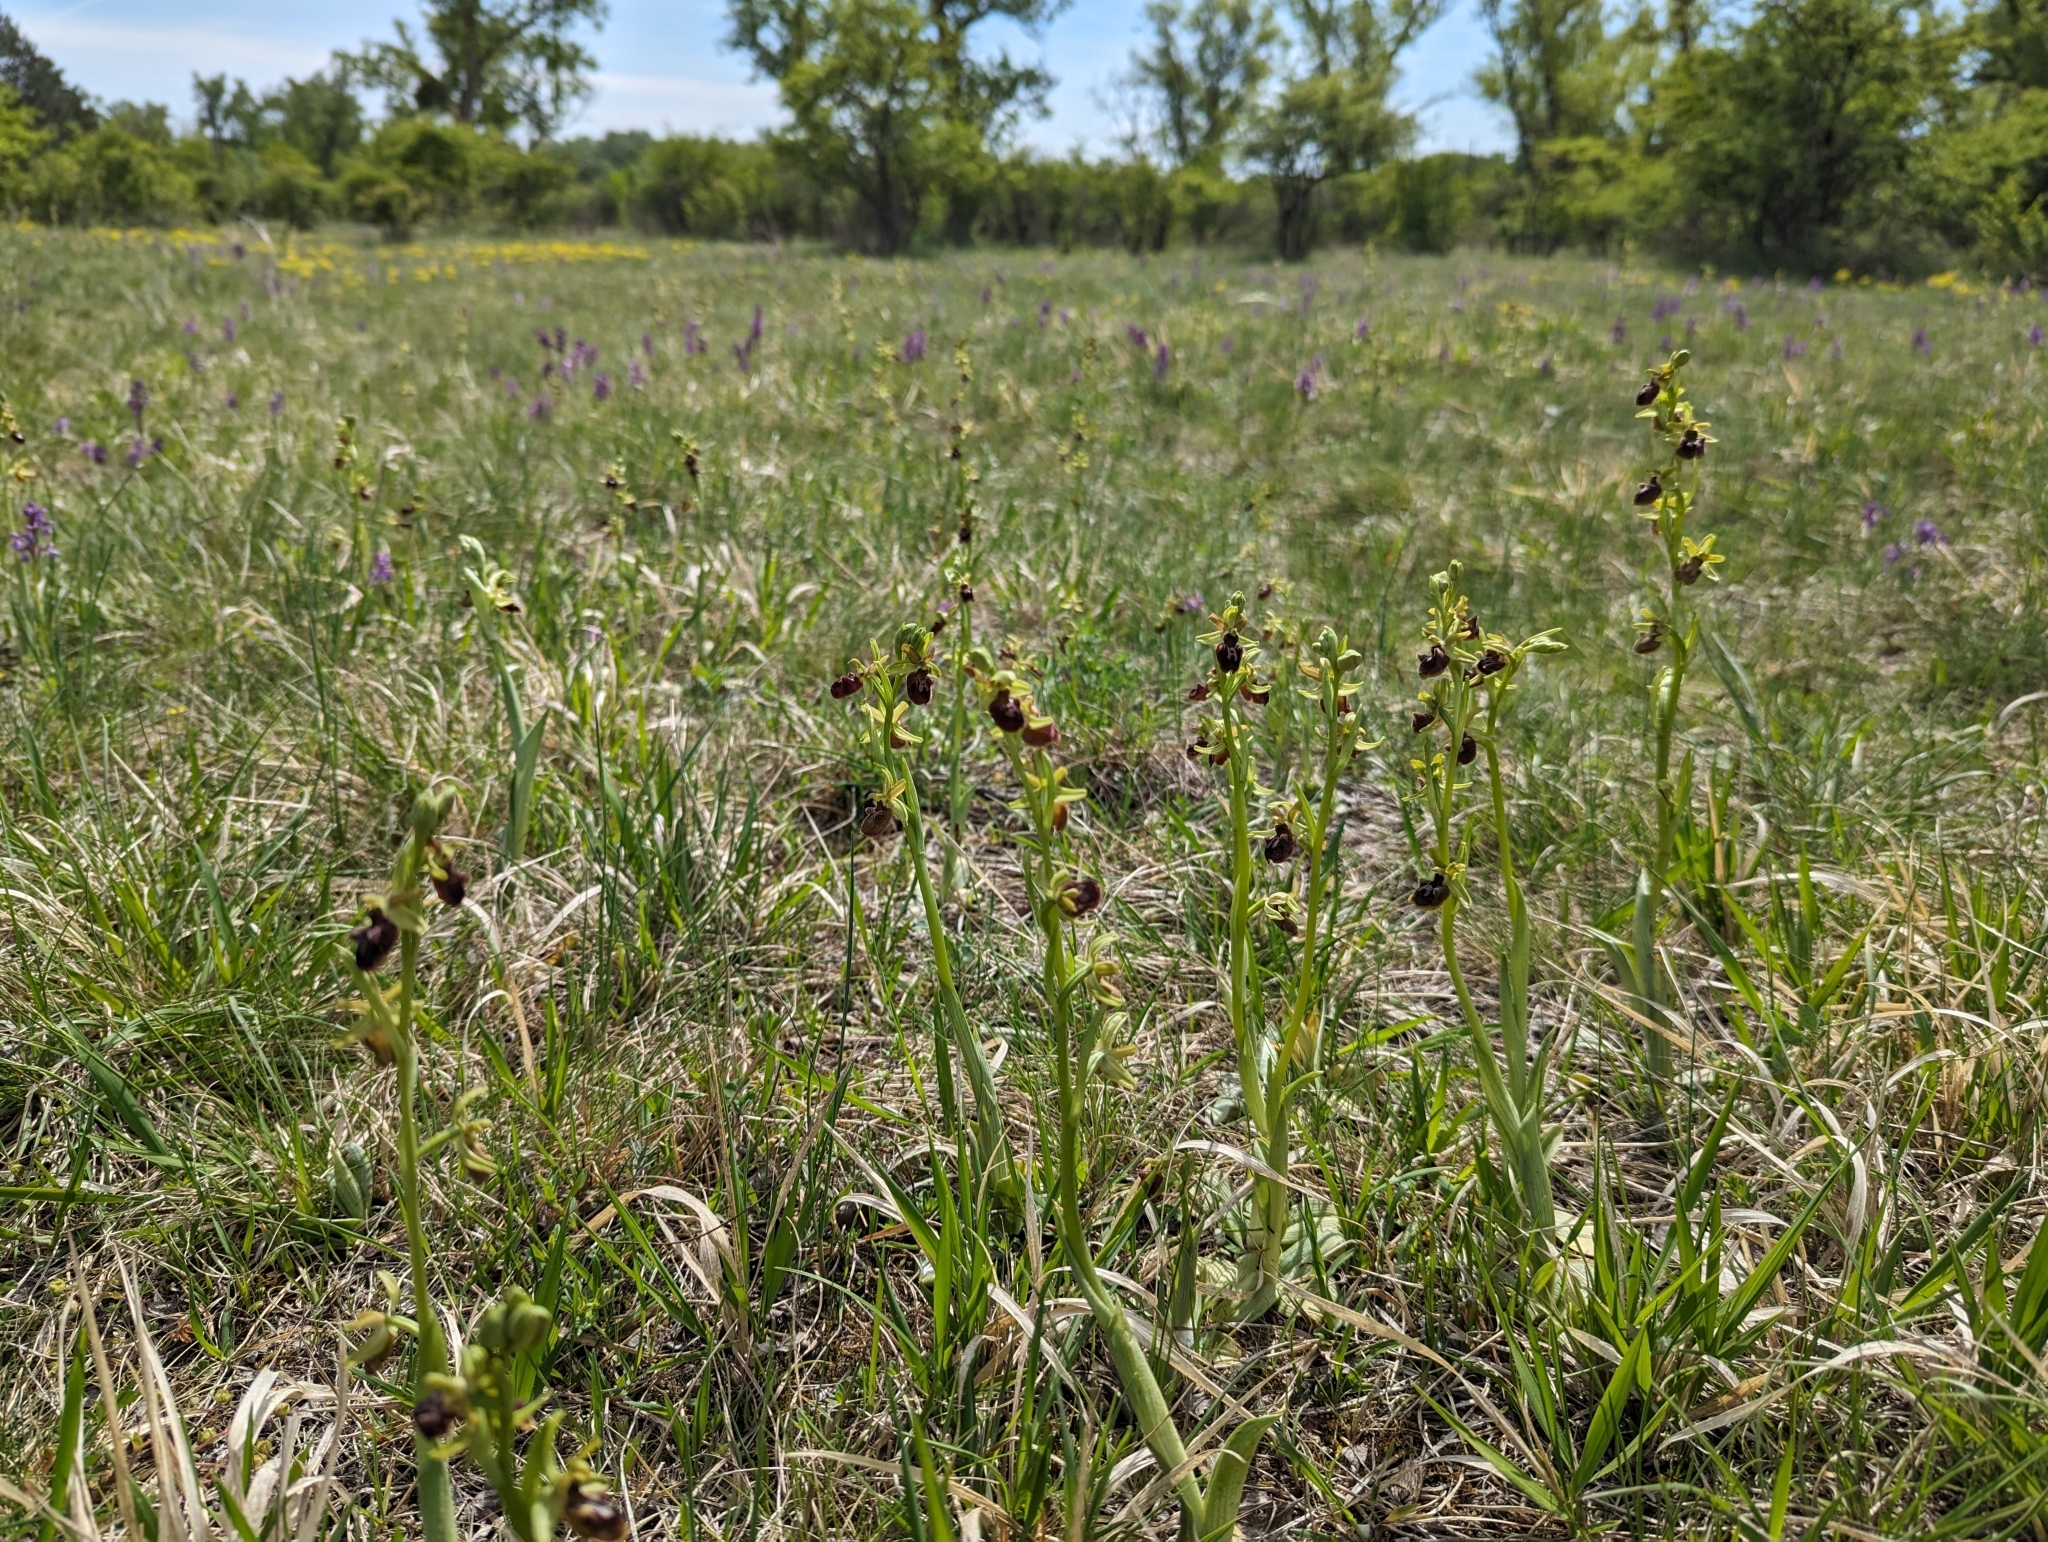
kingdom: Plantae
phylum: Tracheophyta
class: Liliopsida
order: Asparagales
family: Orchidaceae
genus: Ophrys
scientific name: Ophrys sphegodes
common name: Early spider-orchid
